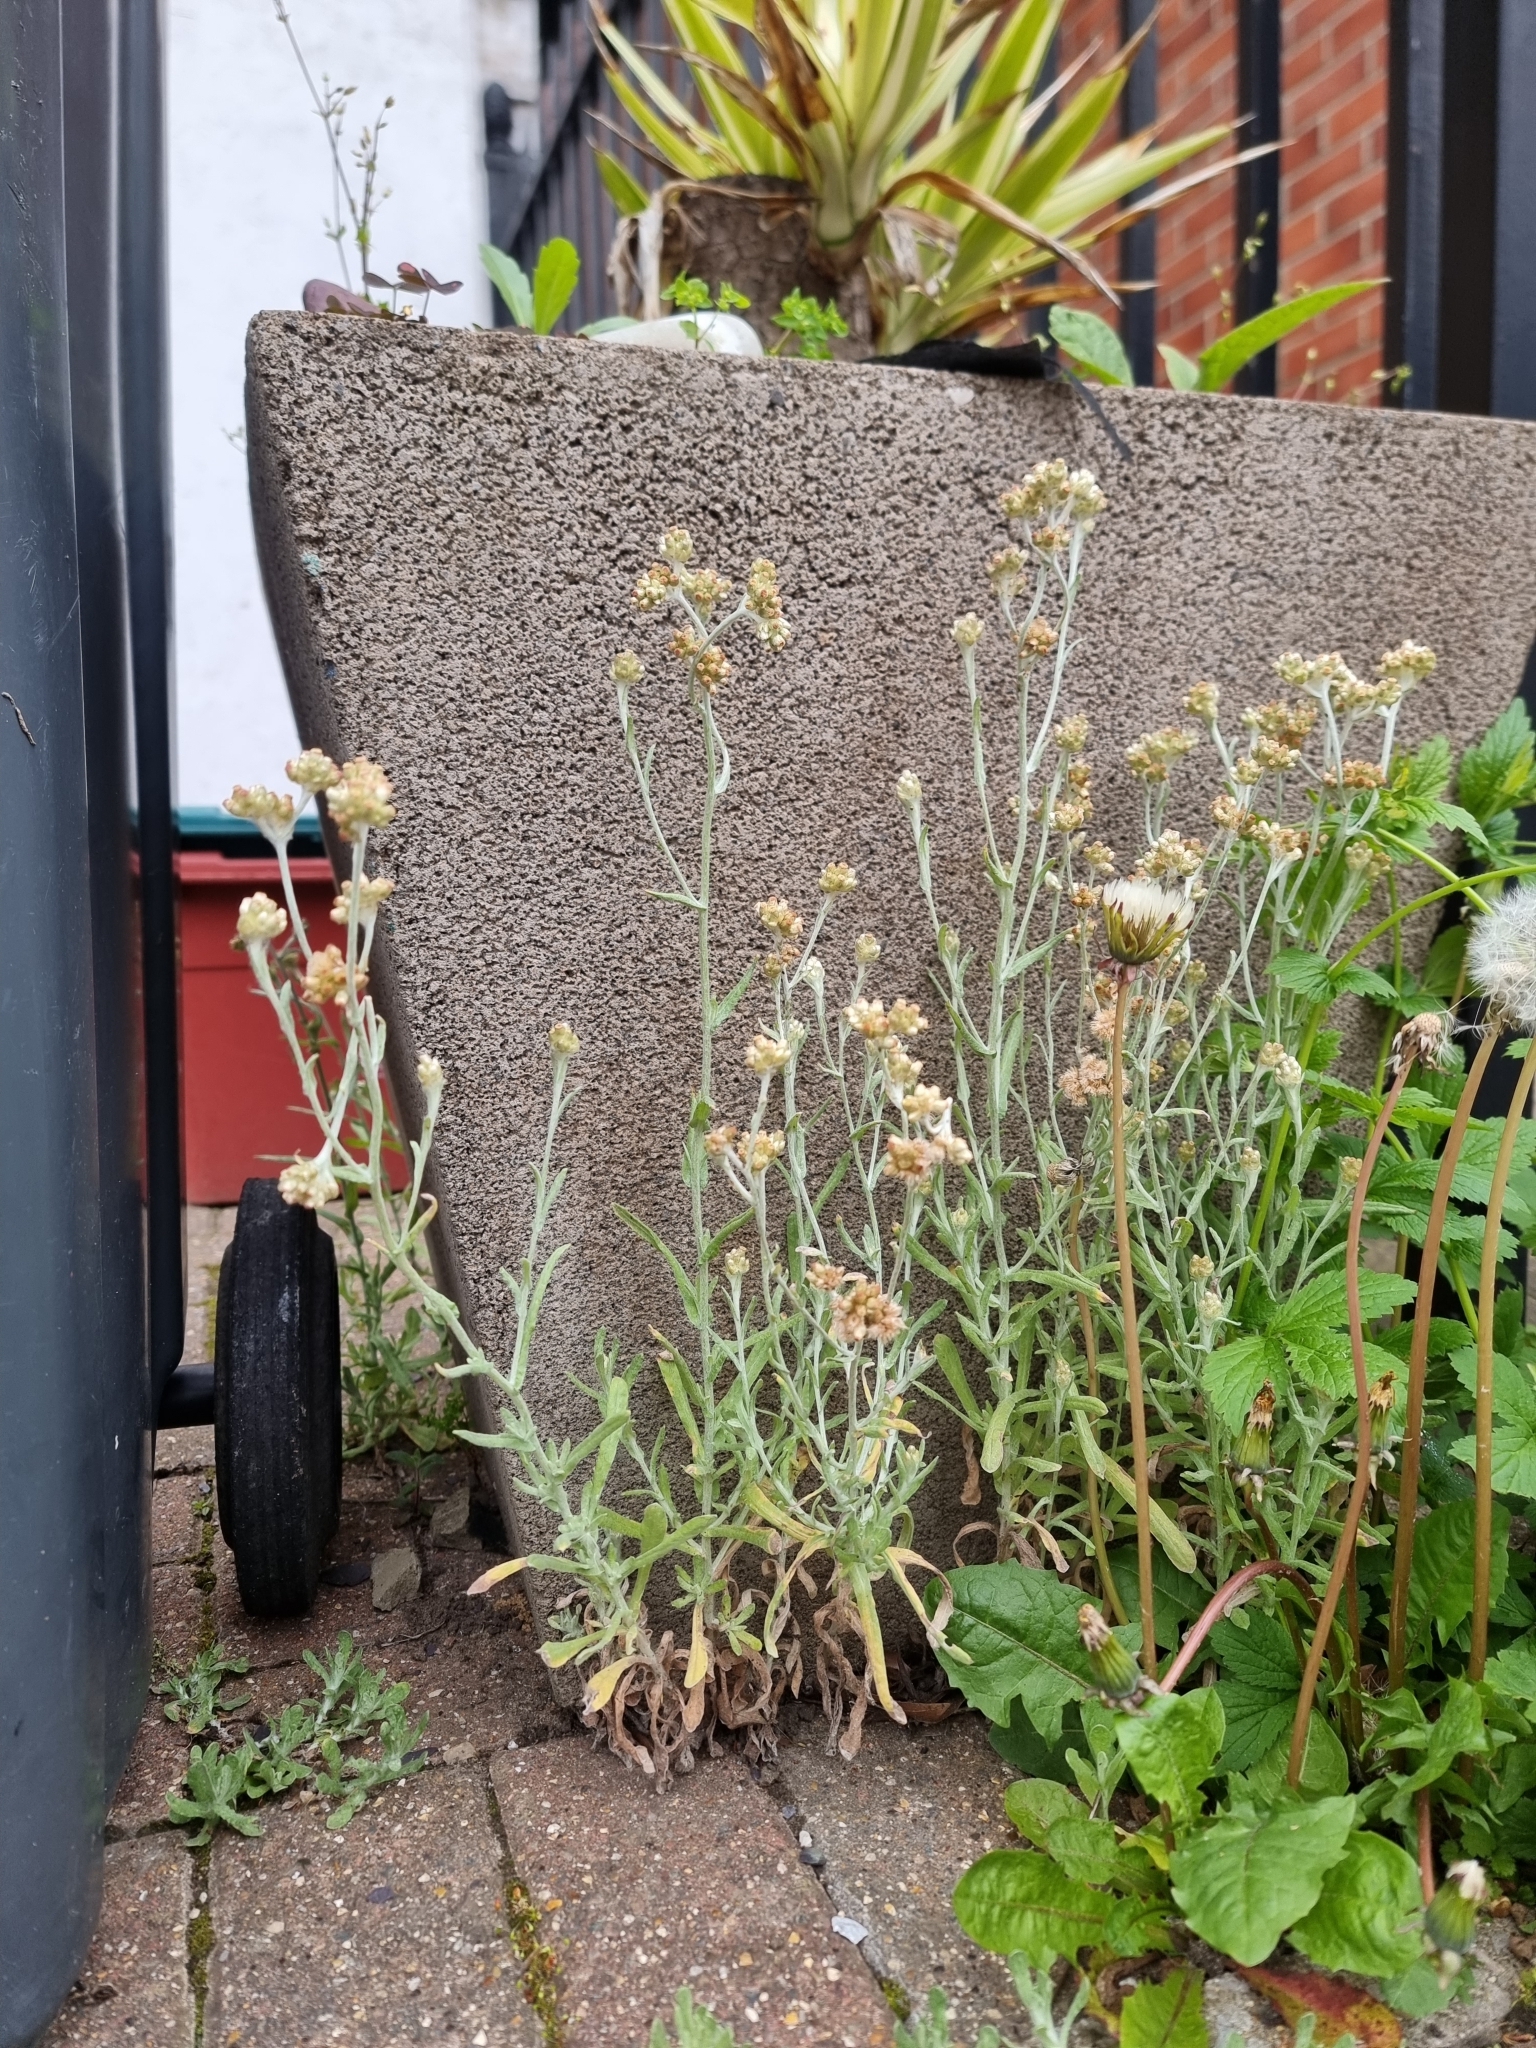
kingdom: Plantae
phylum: Tracheophyta
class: Magnoliopsida
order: Asterales
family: Asteraceae
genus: Helichrysum
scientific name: Helichrysum luteoalbum
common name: Daisy
